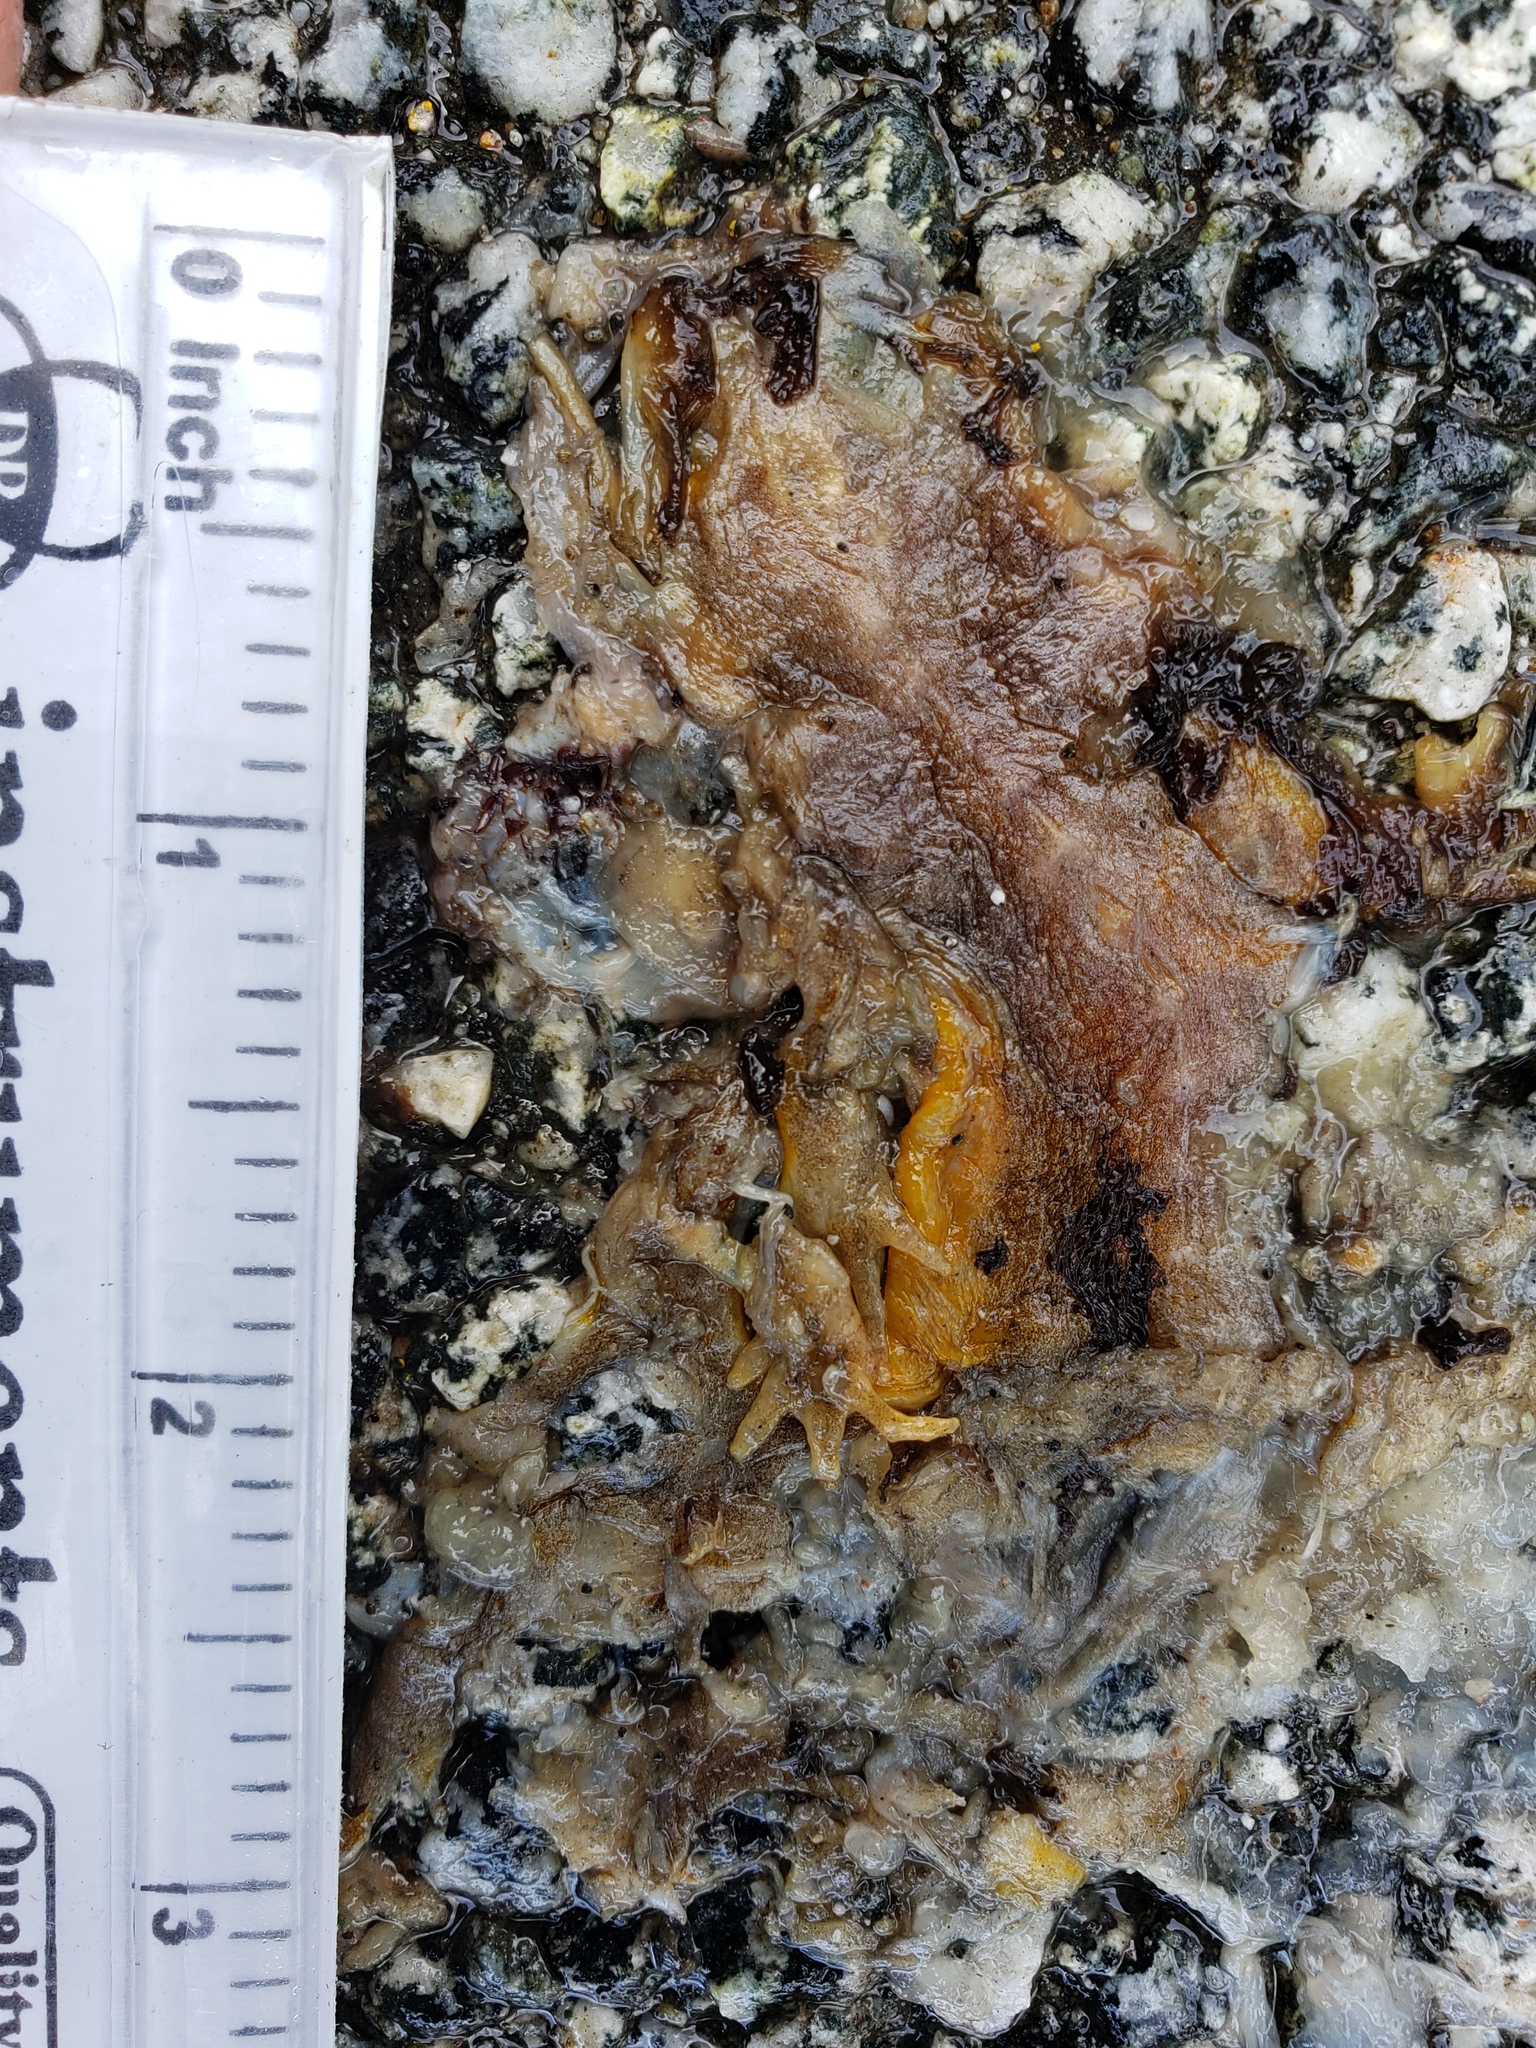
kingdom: Animalia
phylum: Chordata
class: Amphibia
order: Caudata
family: Salamandridae
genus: Taricha
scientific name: Taricha
